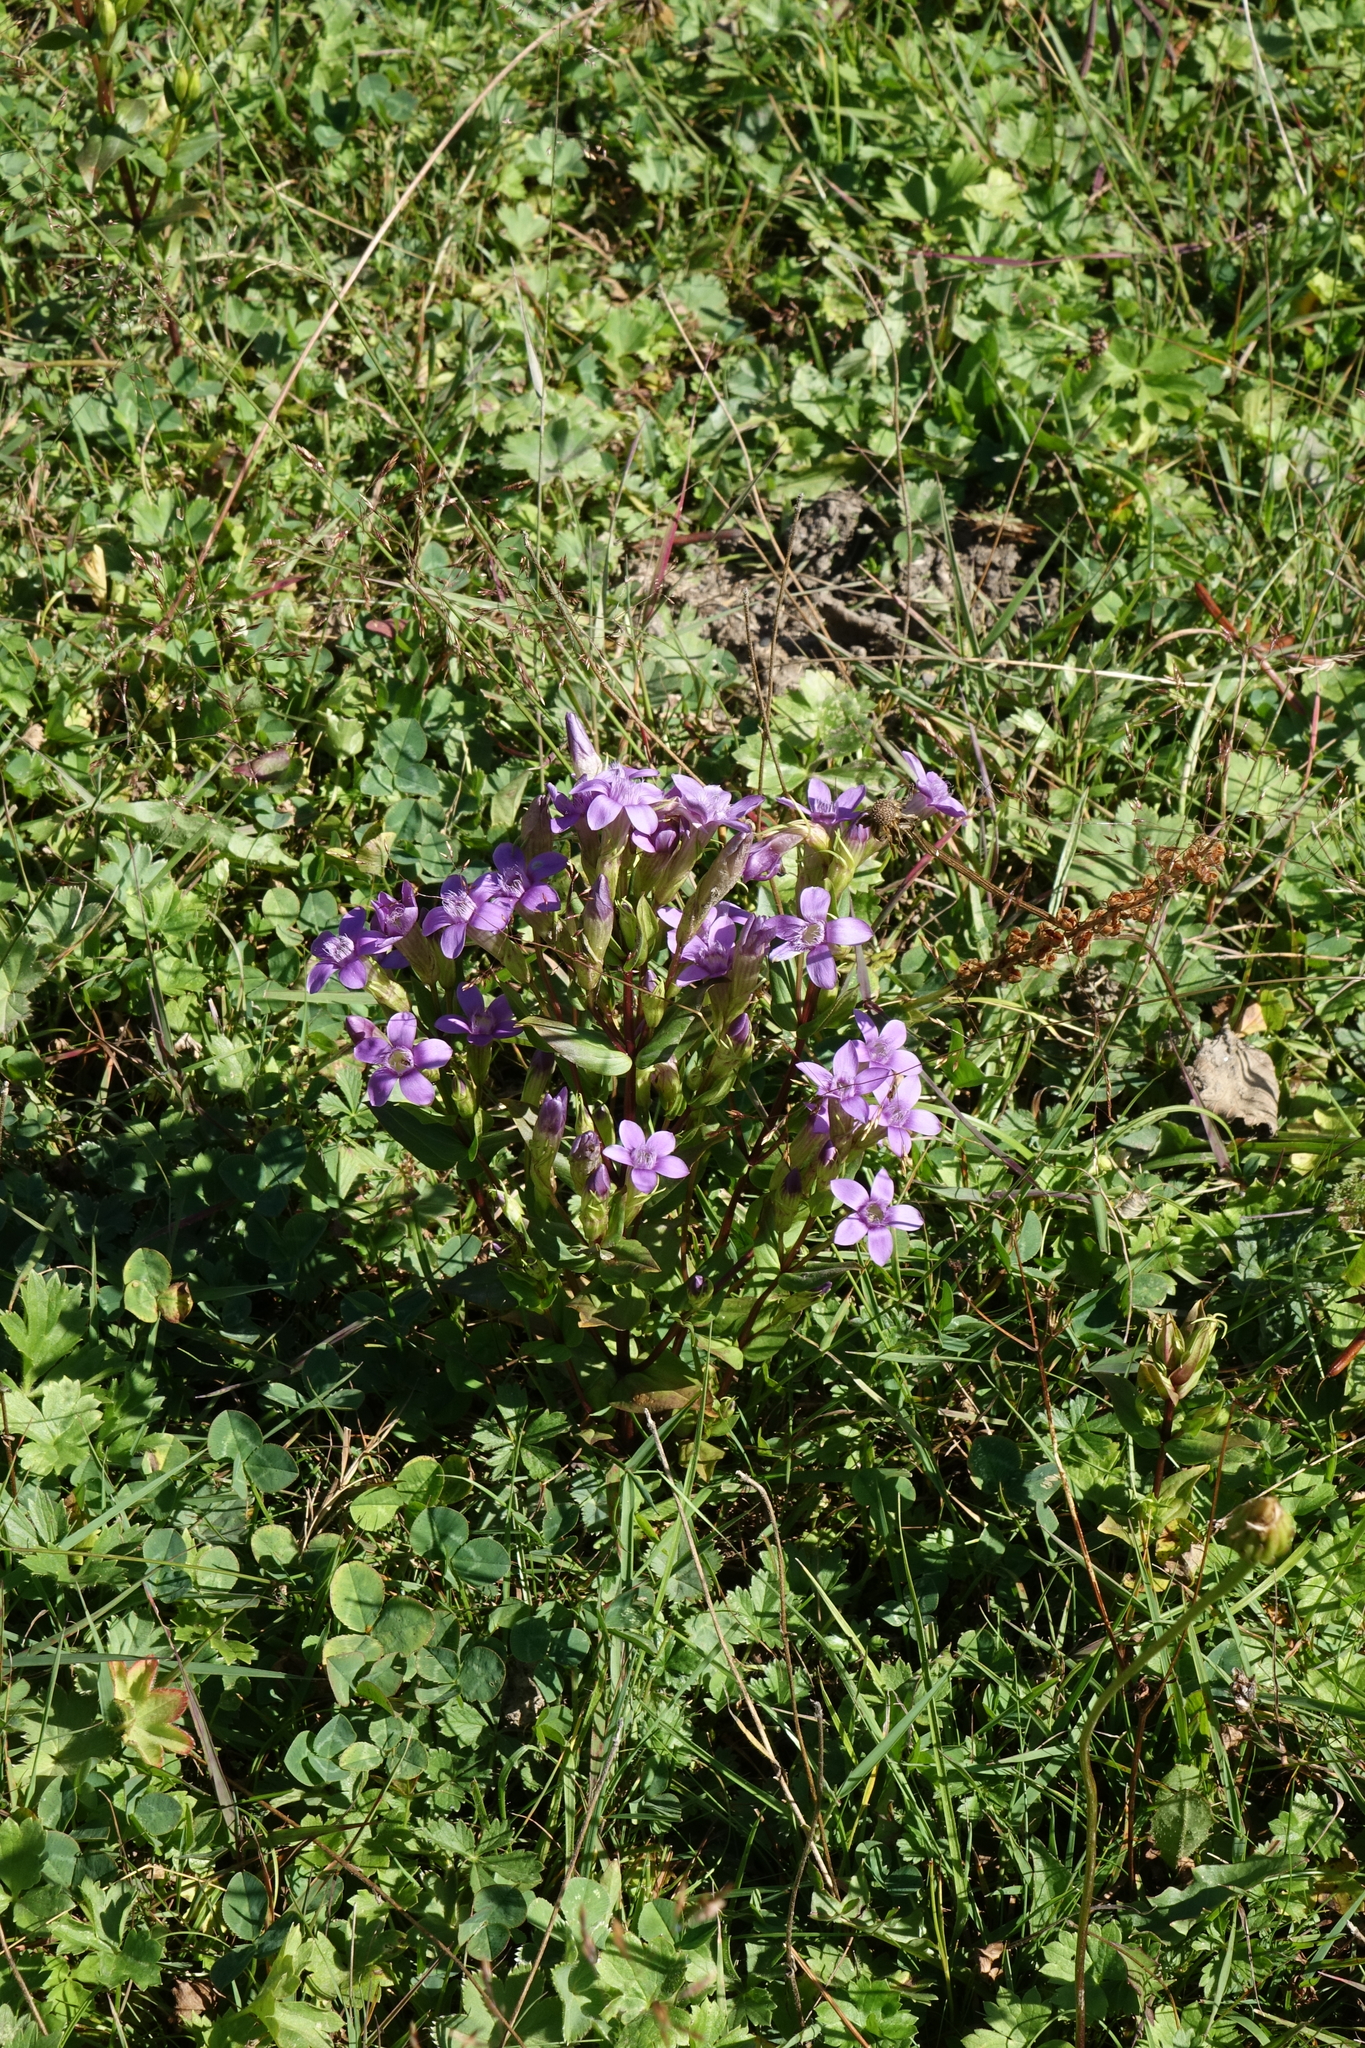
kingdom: Plantae
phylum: Tracheophyta
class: Magnoliopsida
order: Gentianales
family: Gentianaceae
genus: Gentianella
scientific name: Gentianella caucasea
